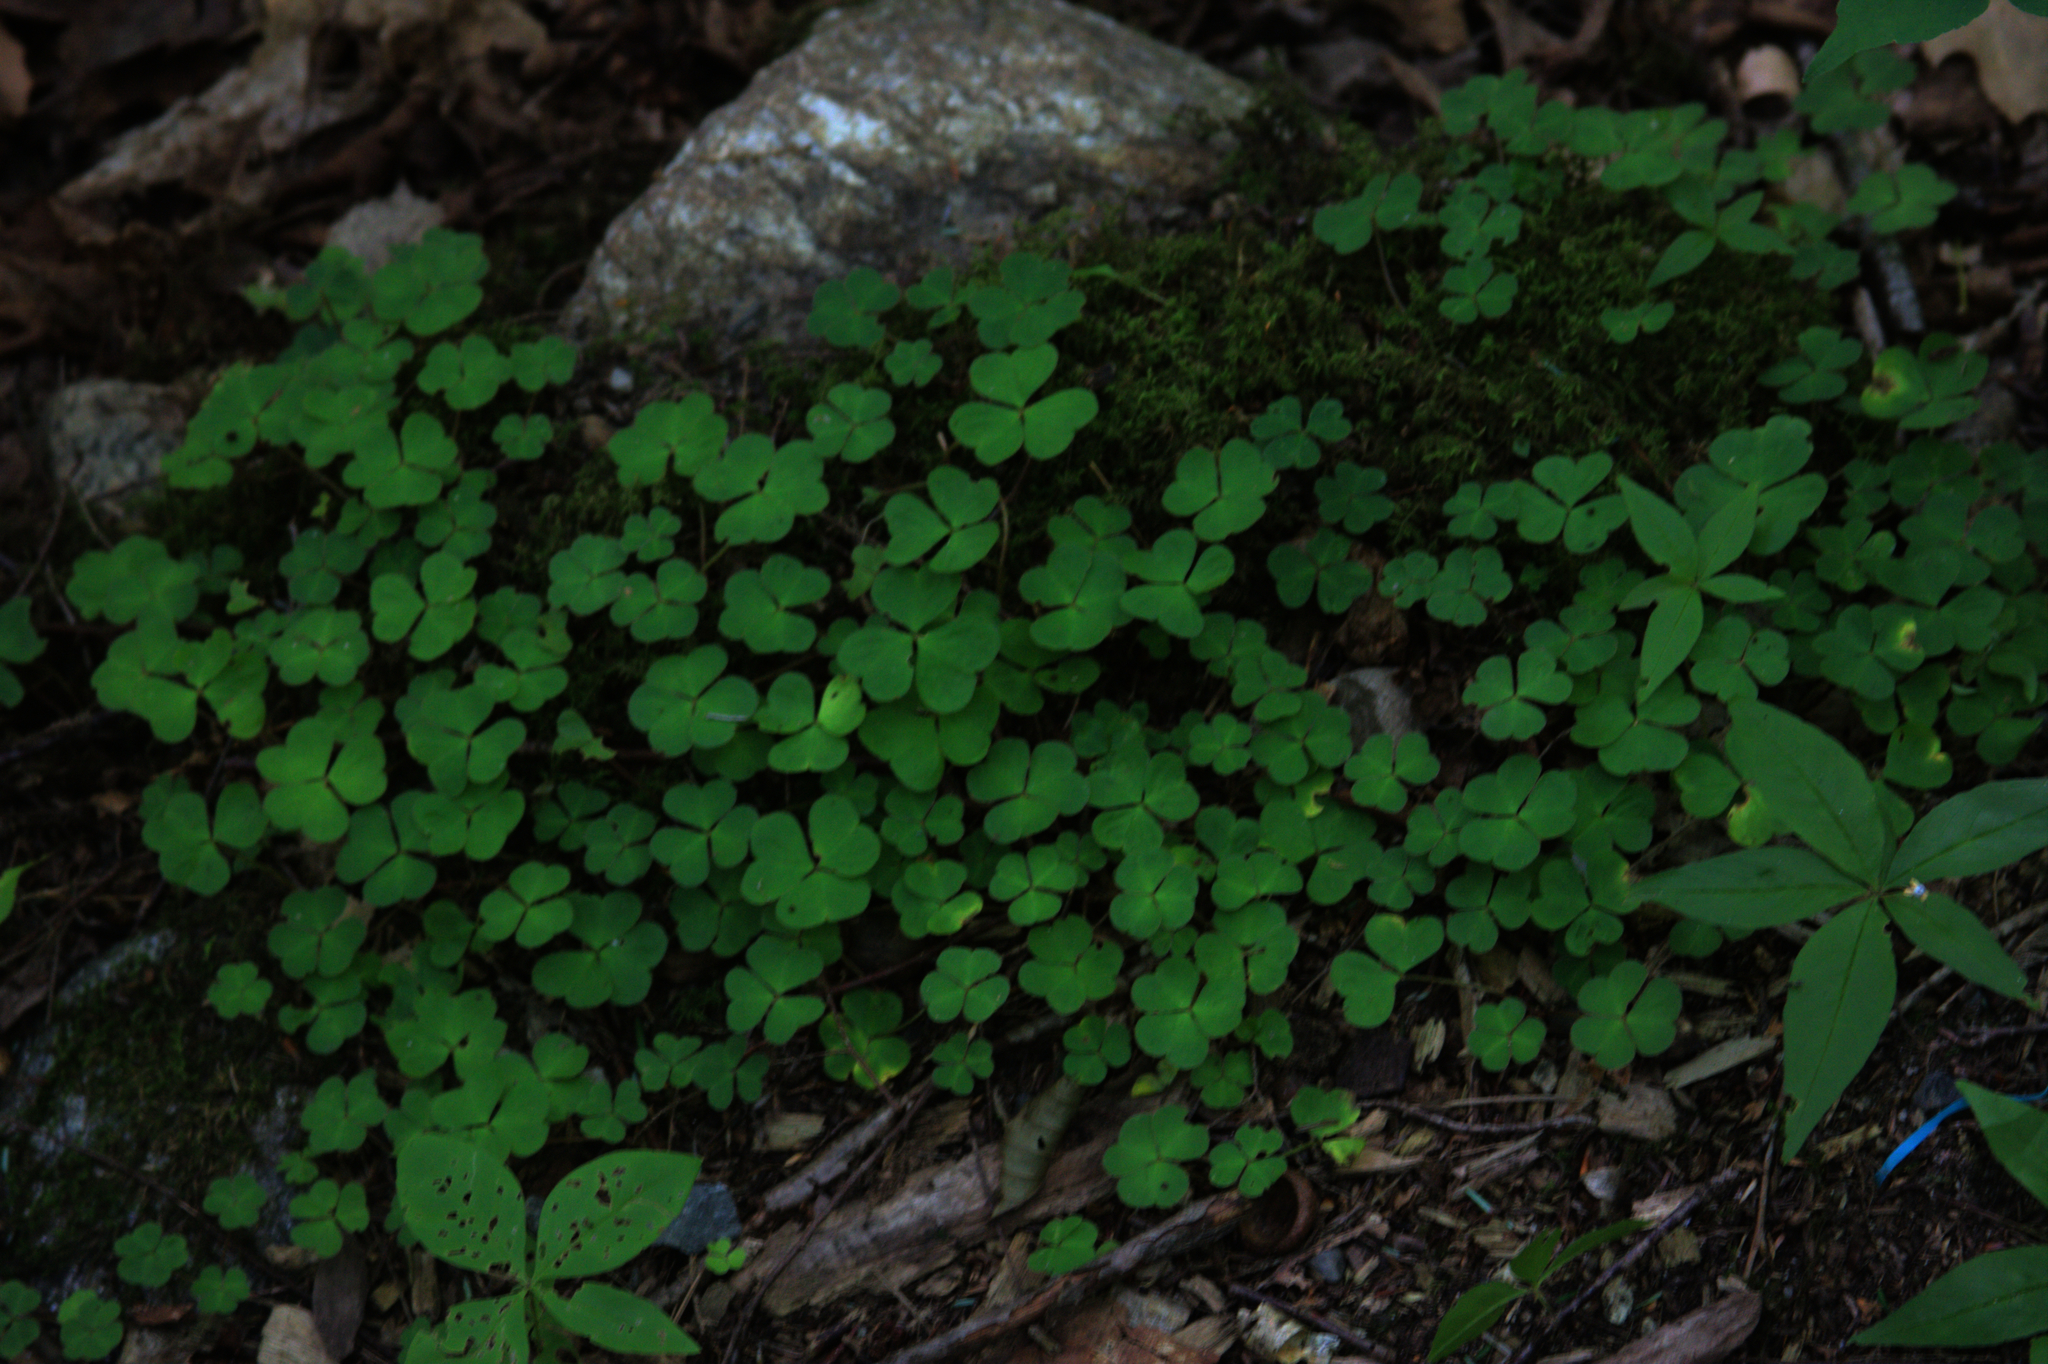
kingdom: Plantae
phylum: Tracheophyta
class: Magnoliopsida
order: Oxalidales
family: Oxalidaceae
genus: Oxalis
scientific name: Oxalis montana
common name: American wood-sorrel
